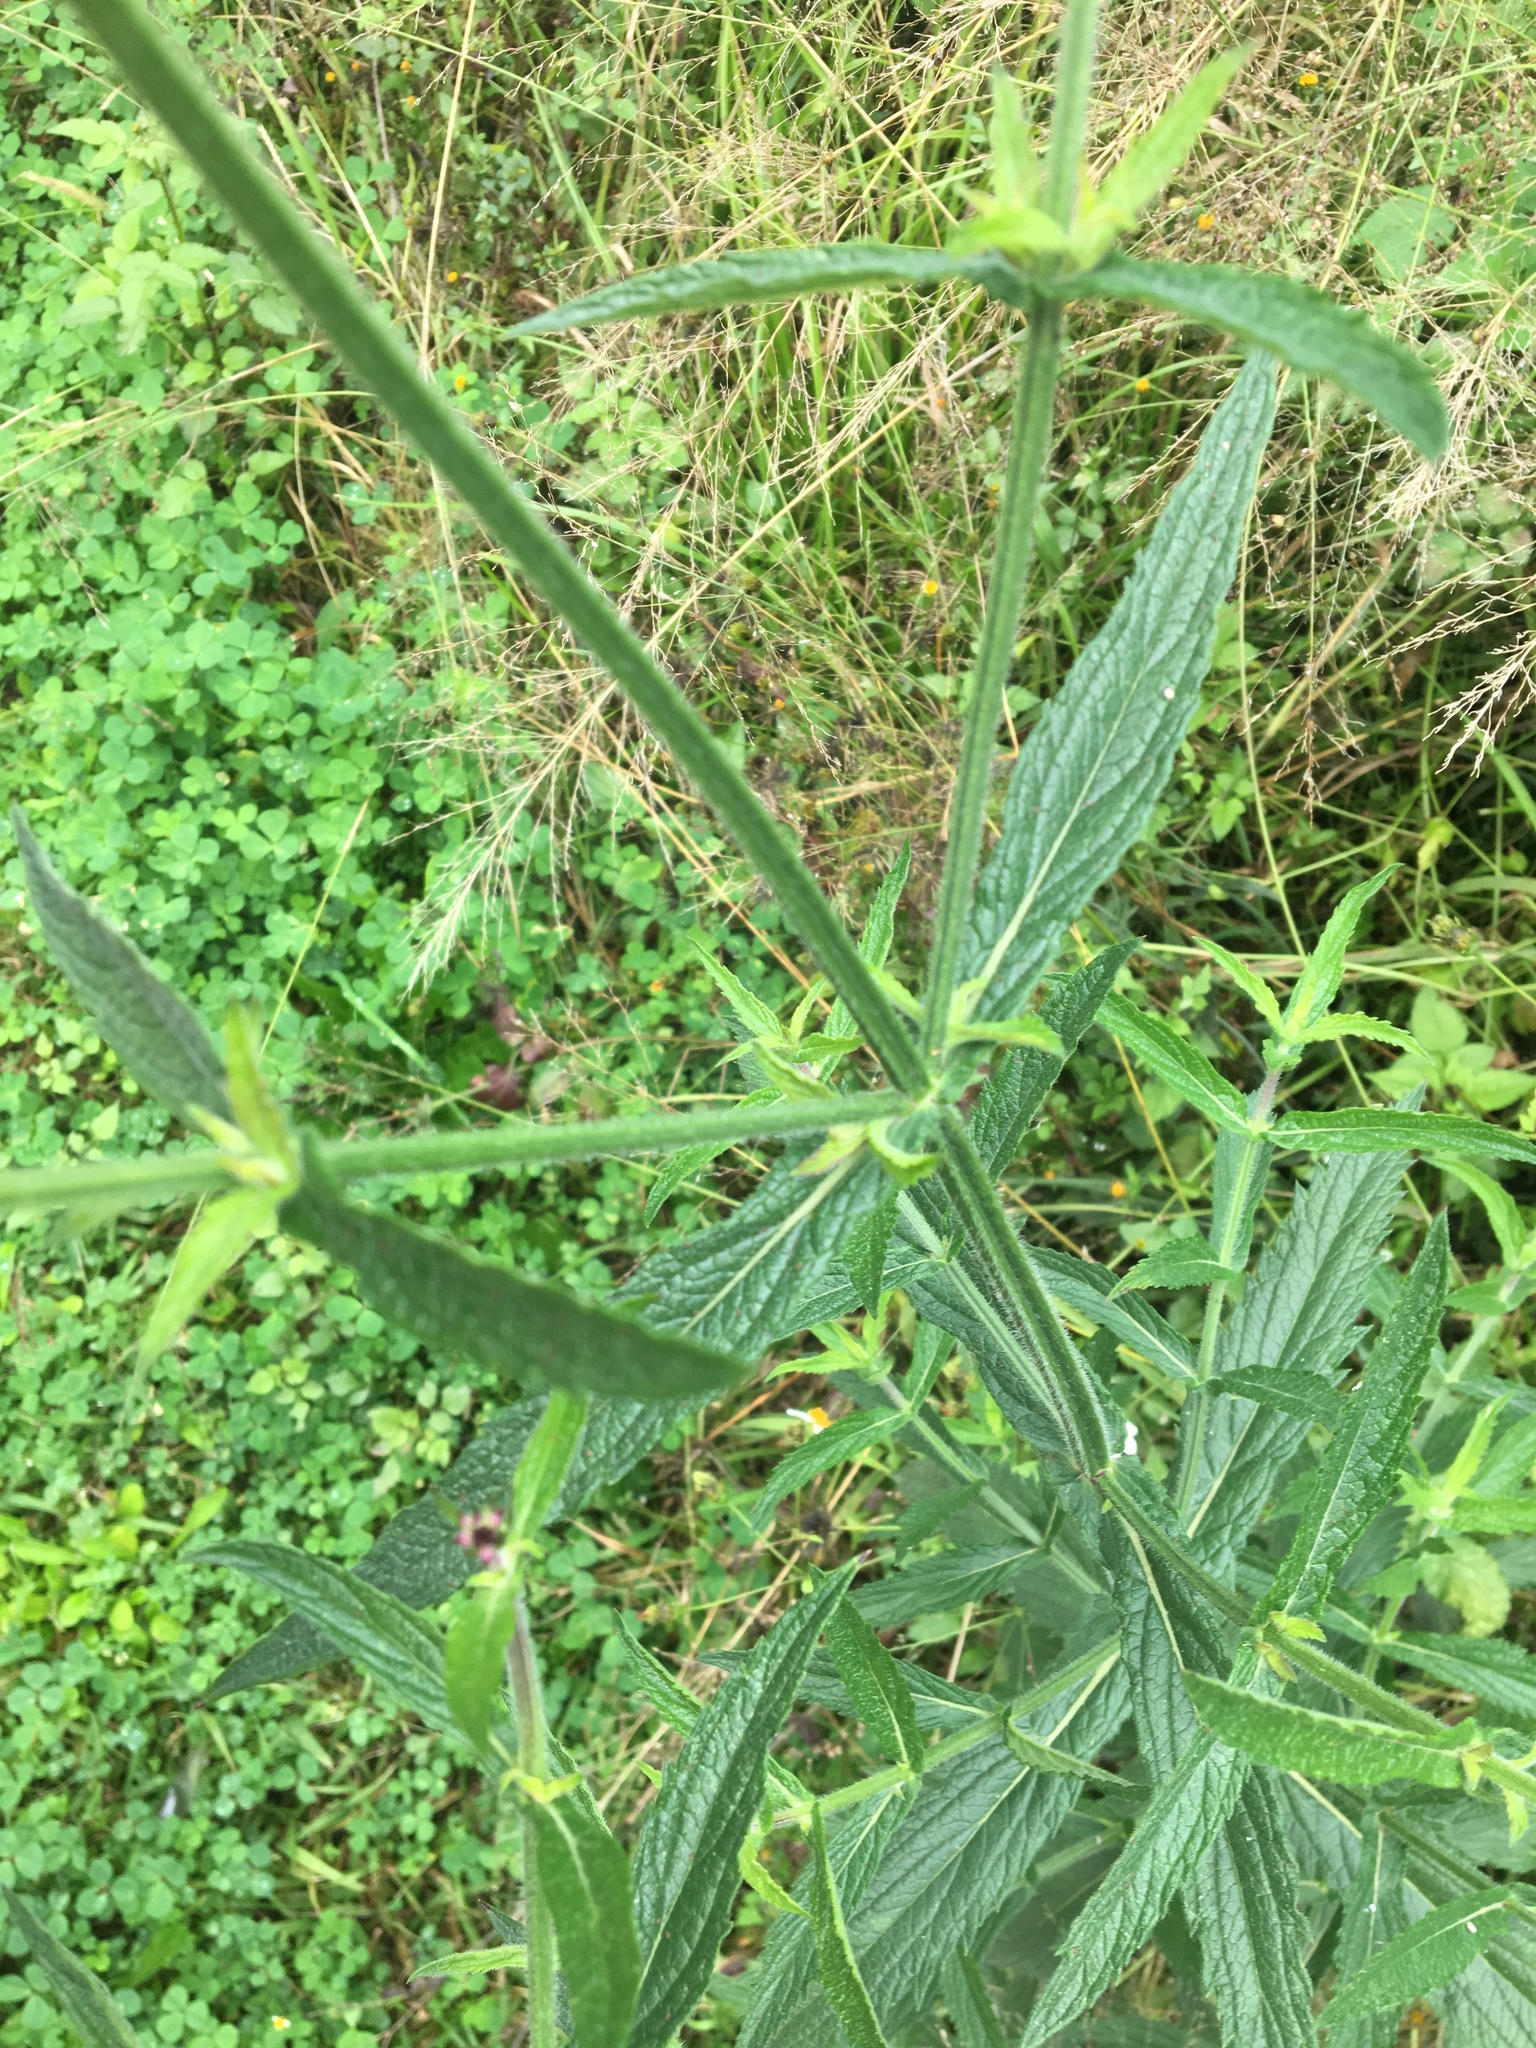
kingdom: Plantae
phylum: Tracheophyta
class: Magnoliopsida
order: Lamiales
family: Verbenaceae
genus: Verbena
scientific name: Verbena bonariensis
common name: Purpletop vervain
